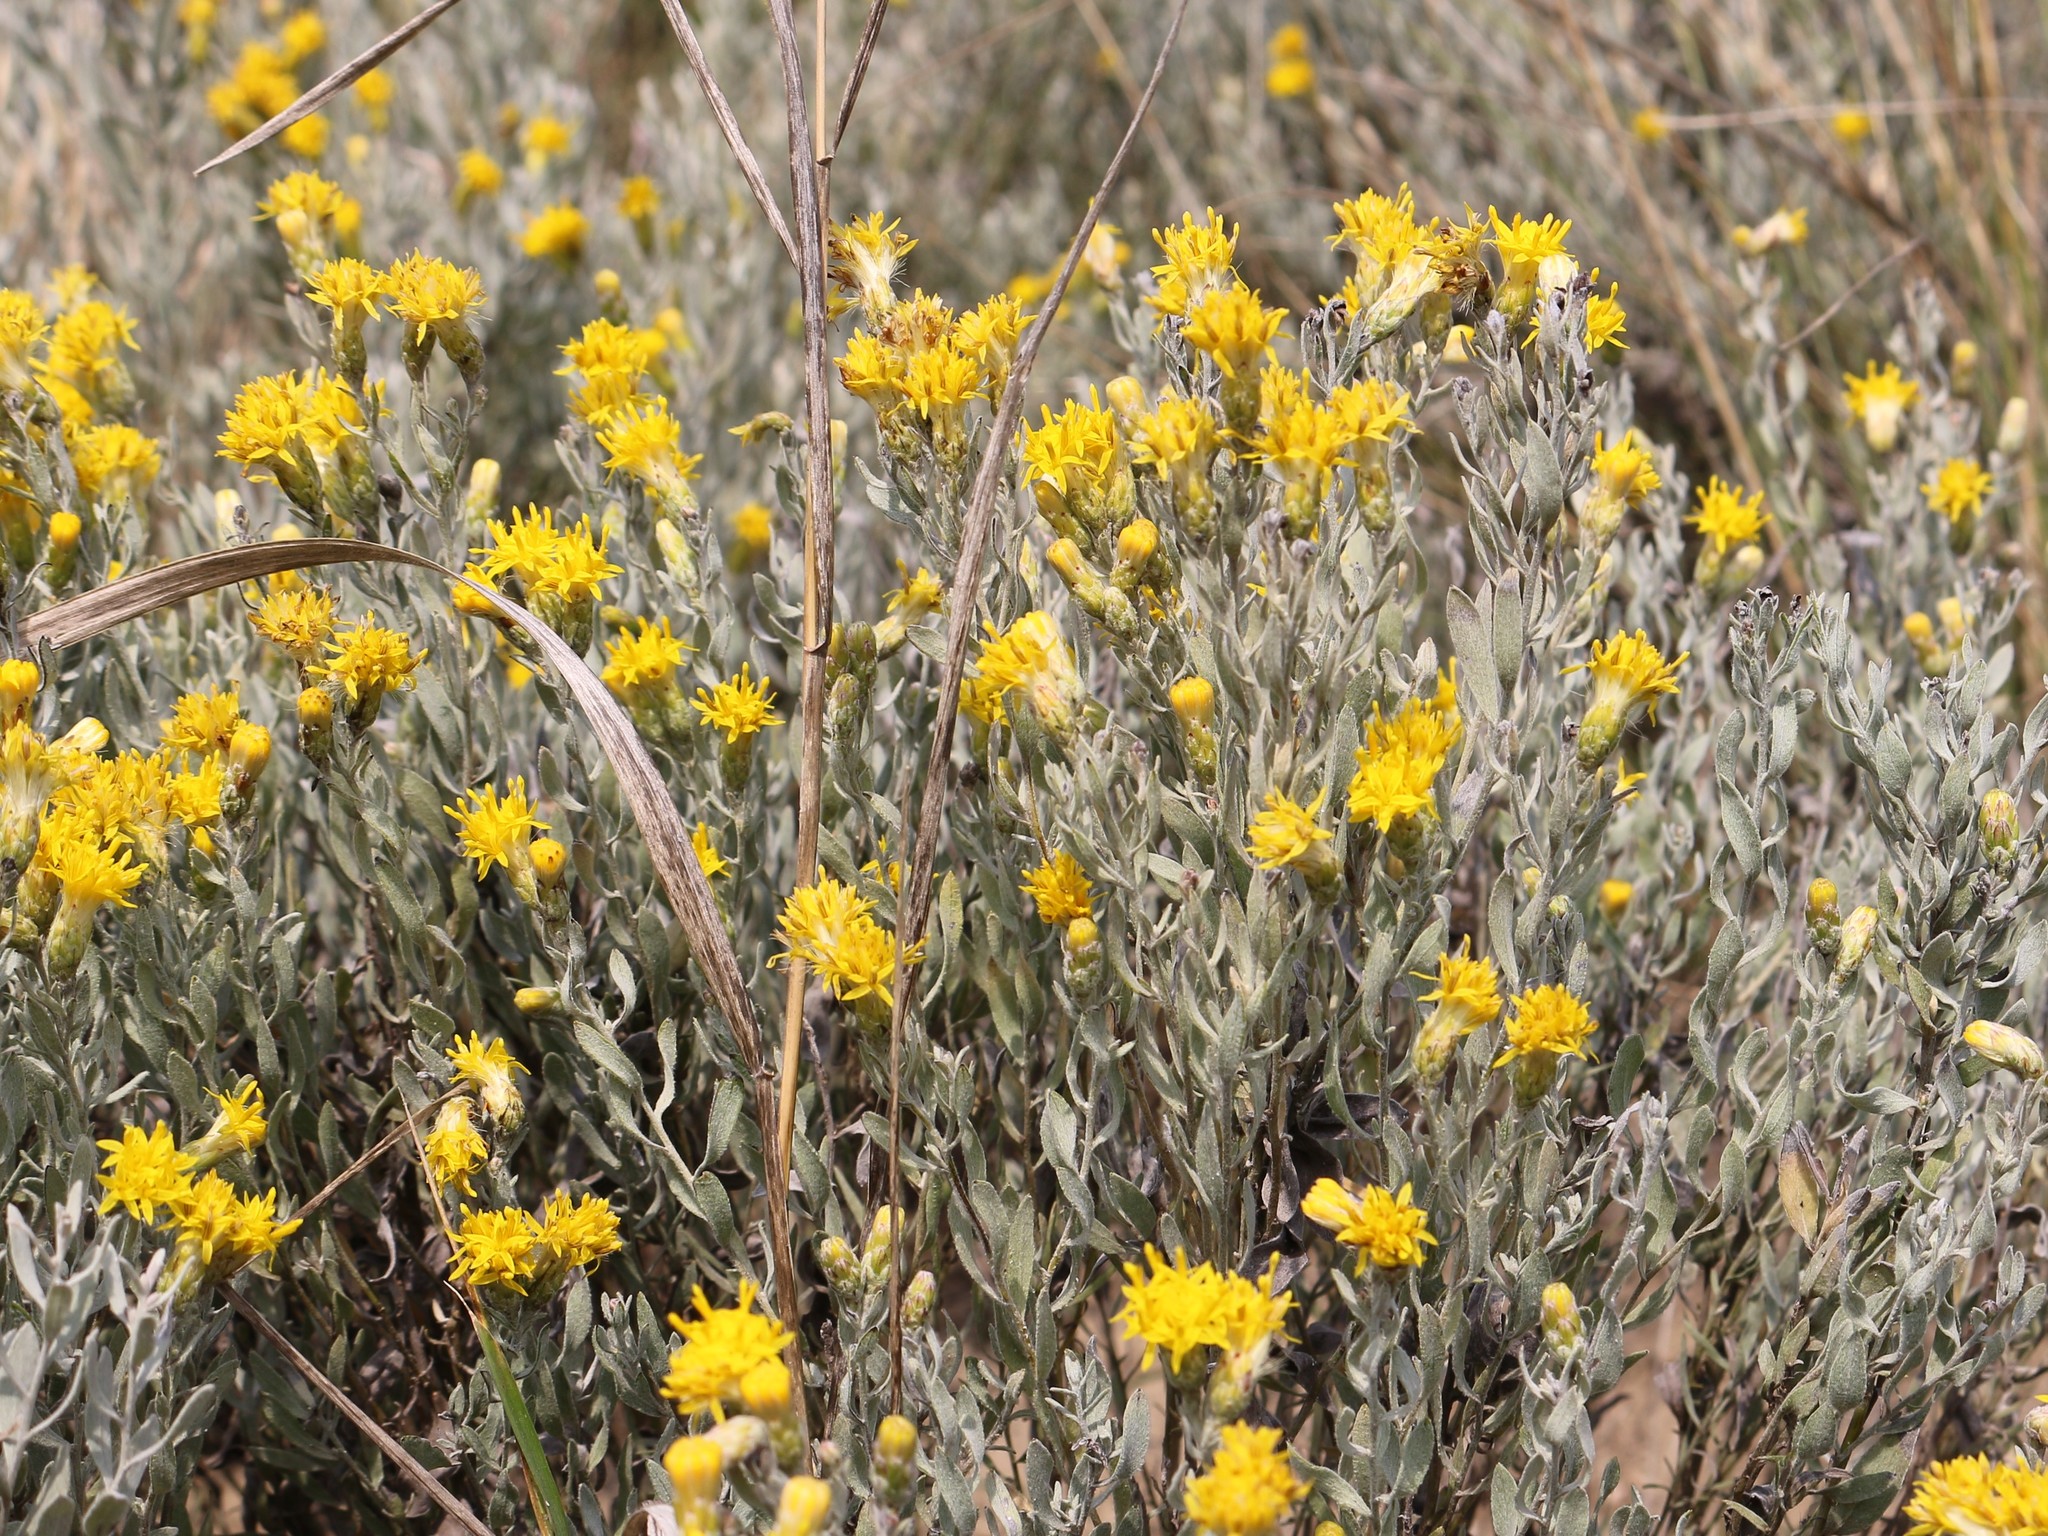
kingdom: Plantae
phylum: Tracheophyta
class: Magnoliopsida
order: Asterales
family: Asteraceae
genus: Galatella
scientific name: Galatella villosa
